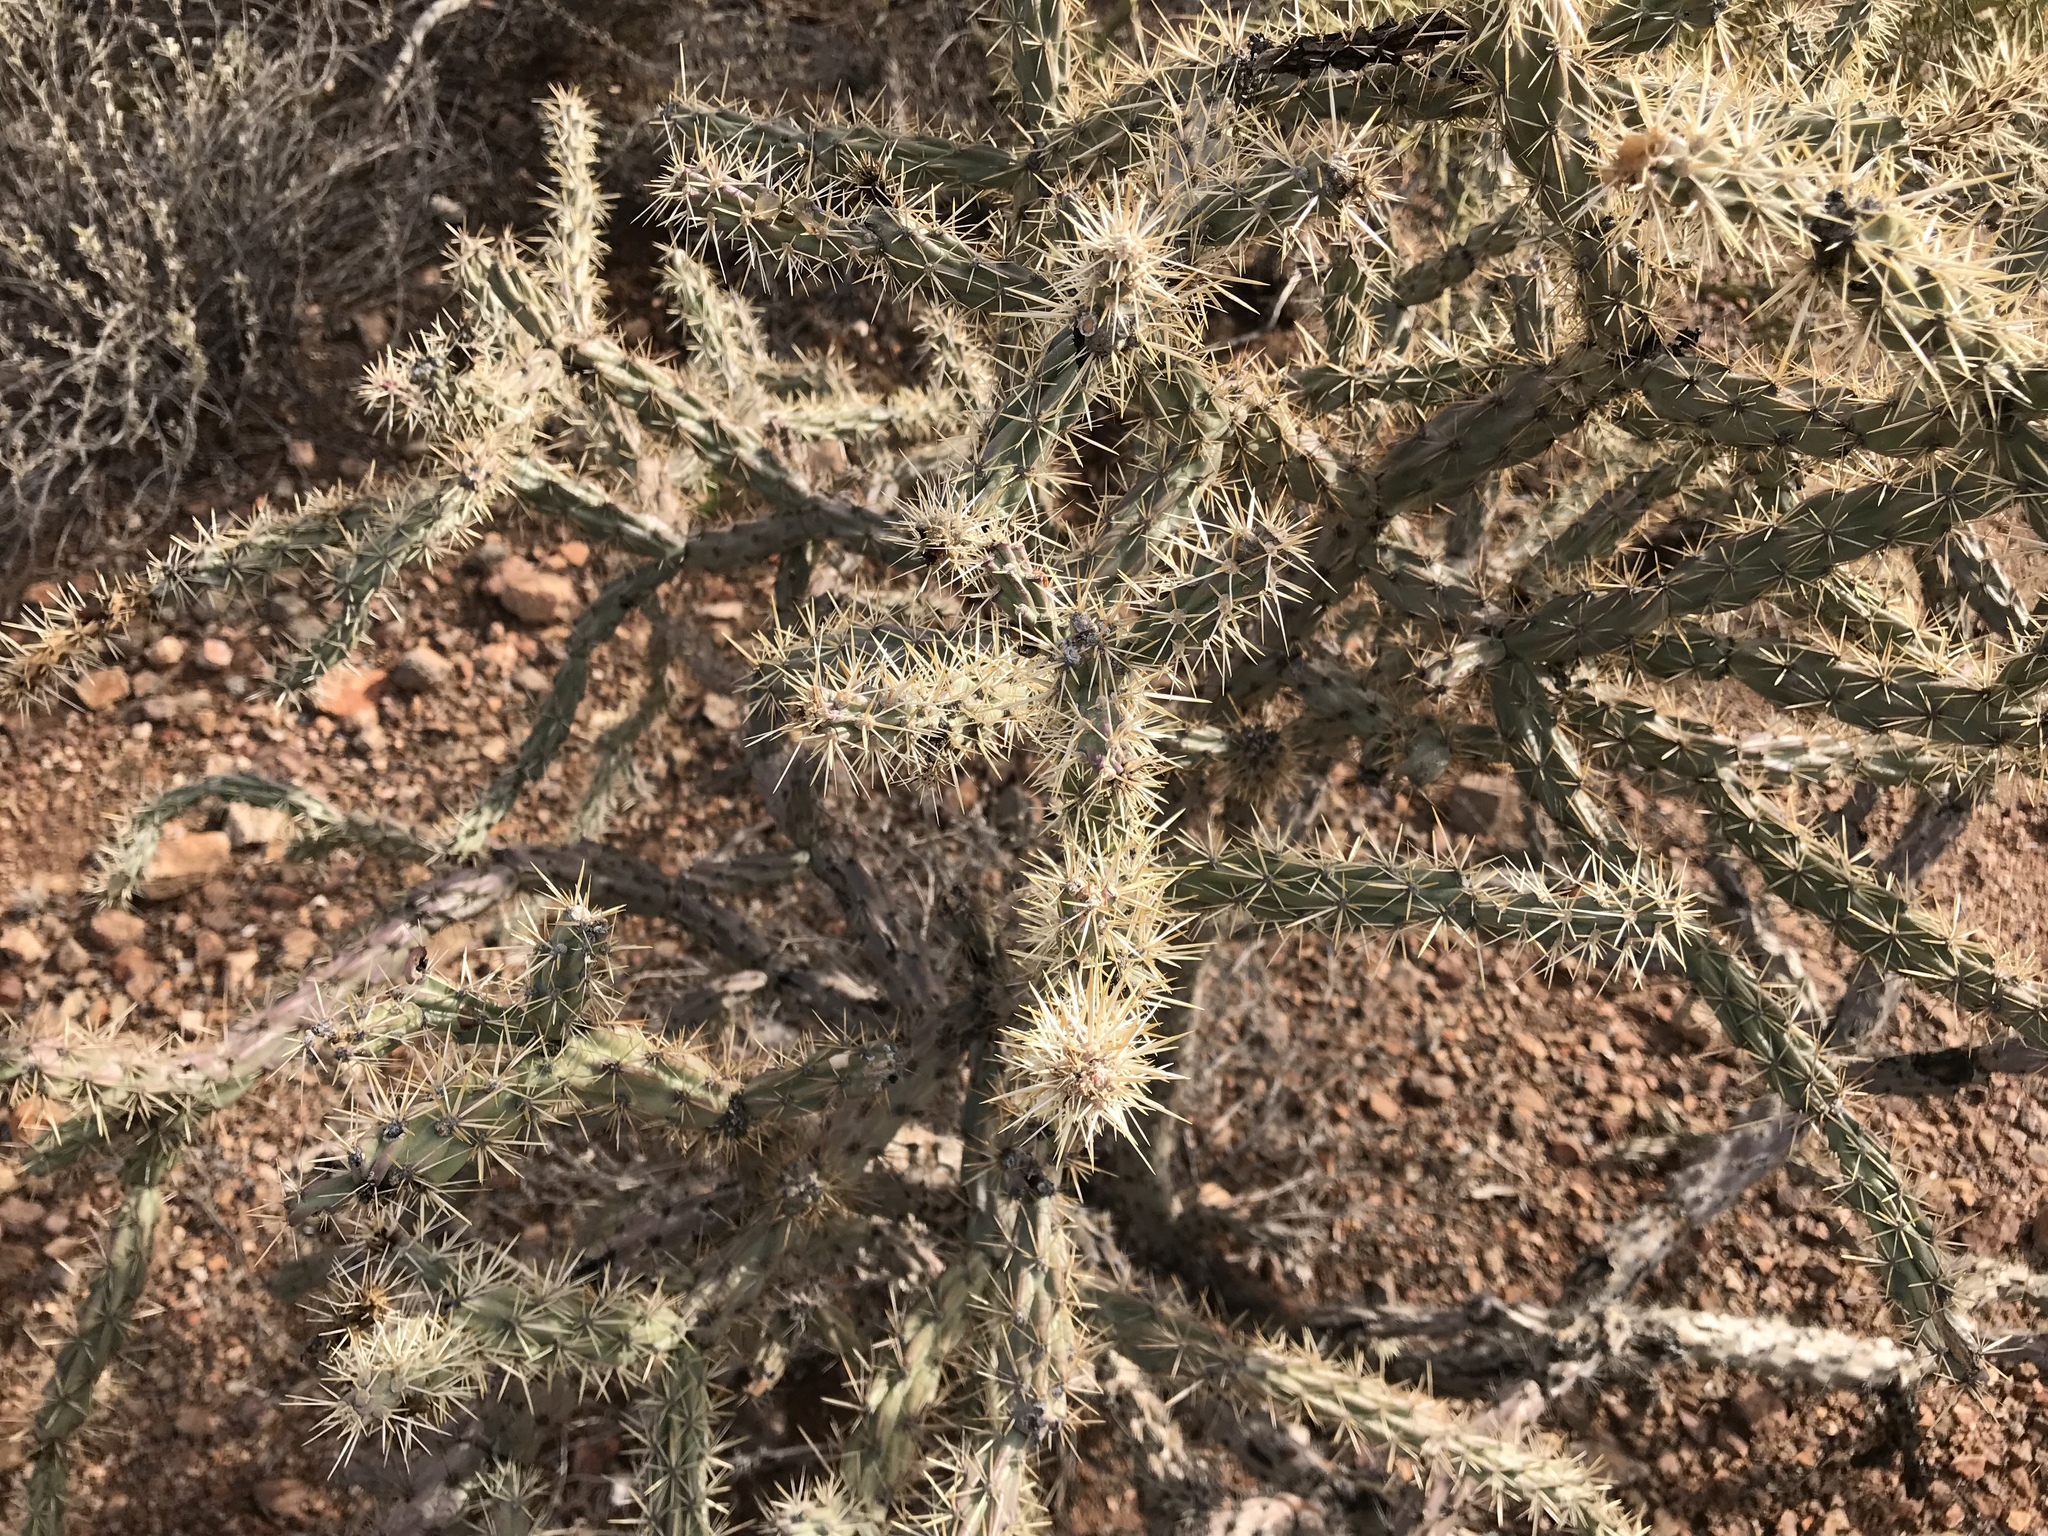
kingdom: Plantae
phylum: Tracheophyta
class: Magnoliopsida
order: Caryophyllales
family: Cactaceae
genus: Cylindropuntia
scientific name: Cylindropuntia acanthocarpa
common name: Buckhorn cholla
